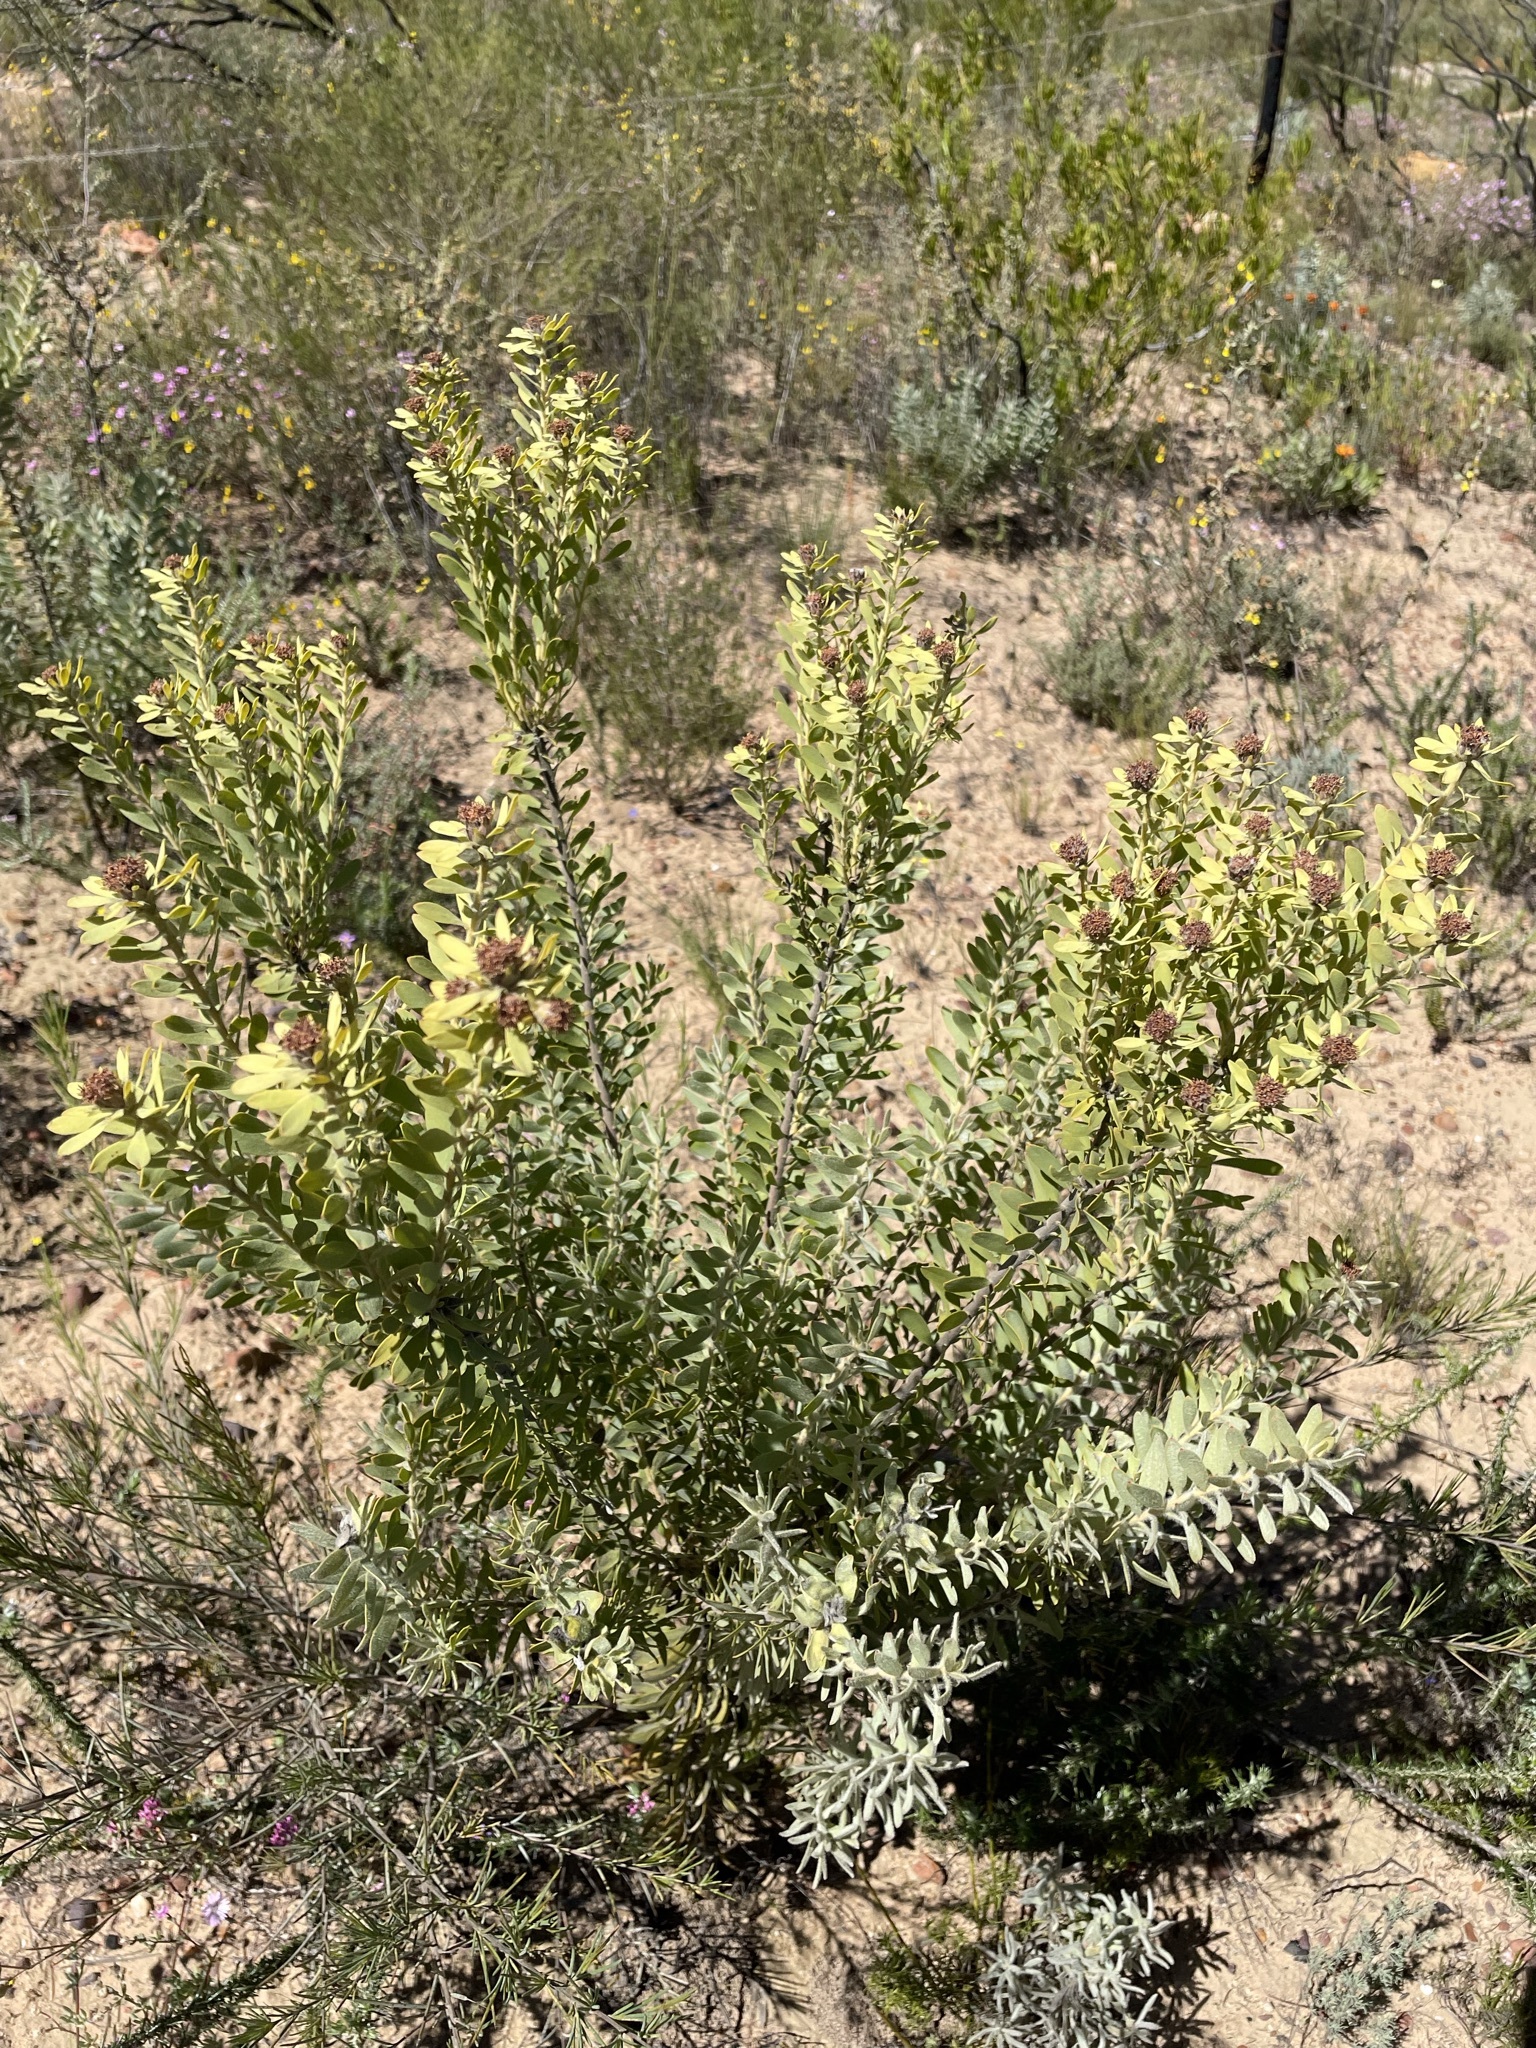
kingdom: Plantae
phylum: Tracheophyta
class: Magnoliopsida
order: Proteales
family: Proteaceae
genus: Leucadendron
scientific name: Leucadendron pubescens
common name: Grey conebush
